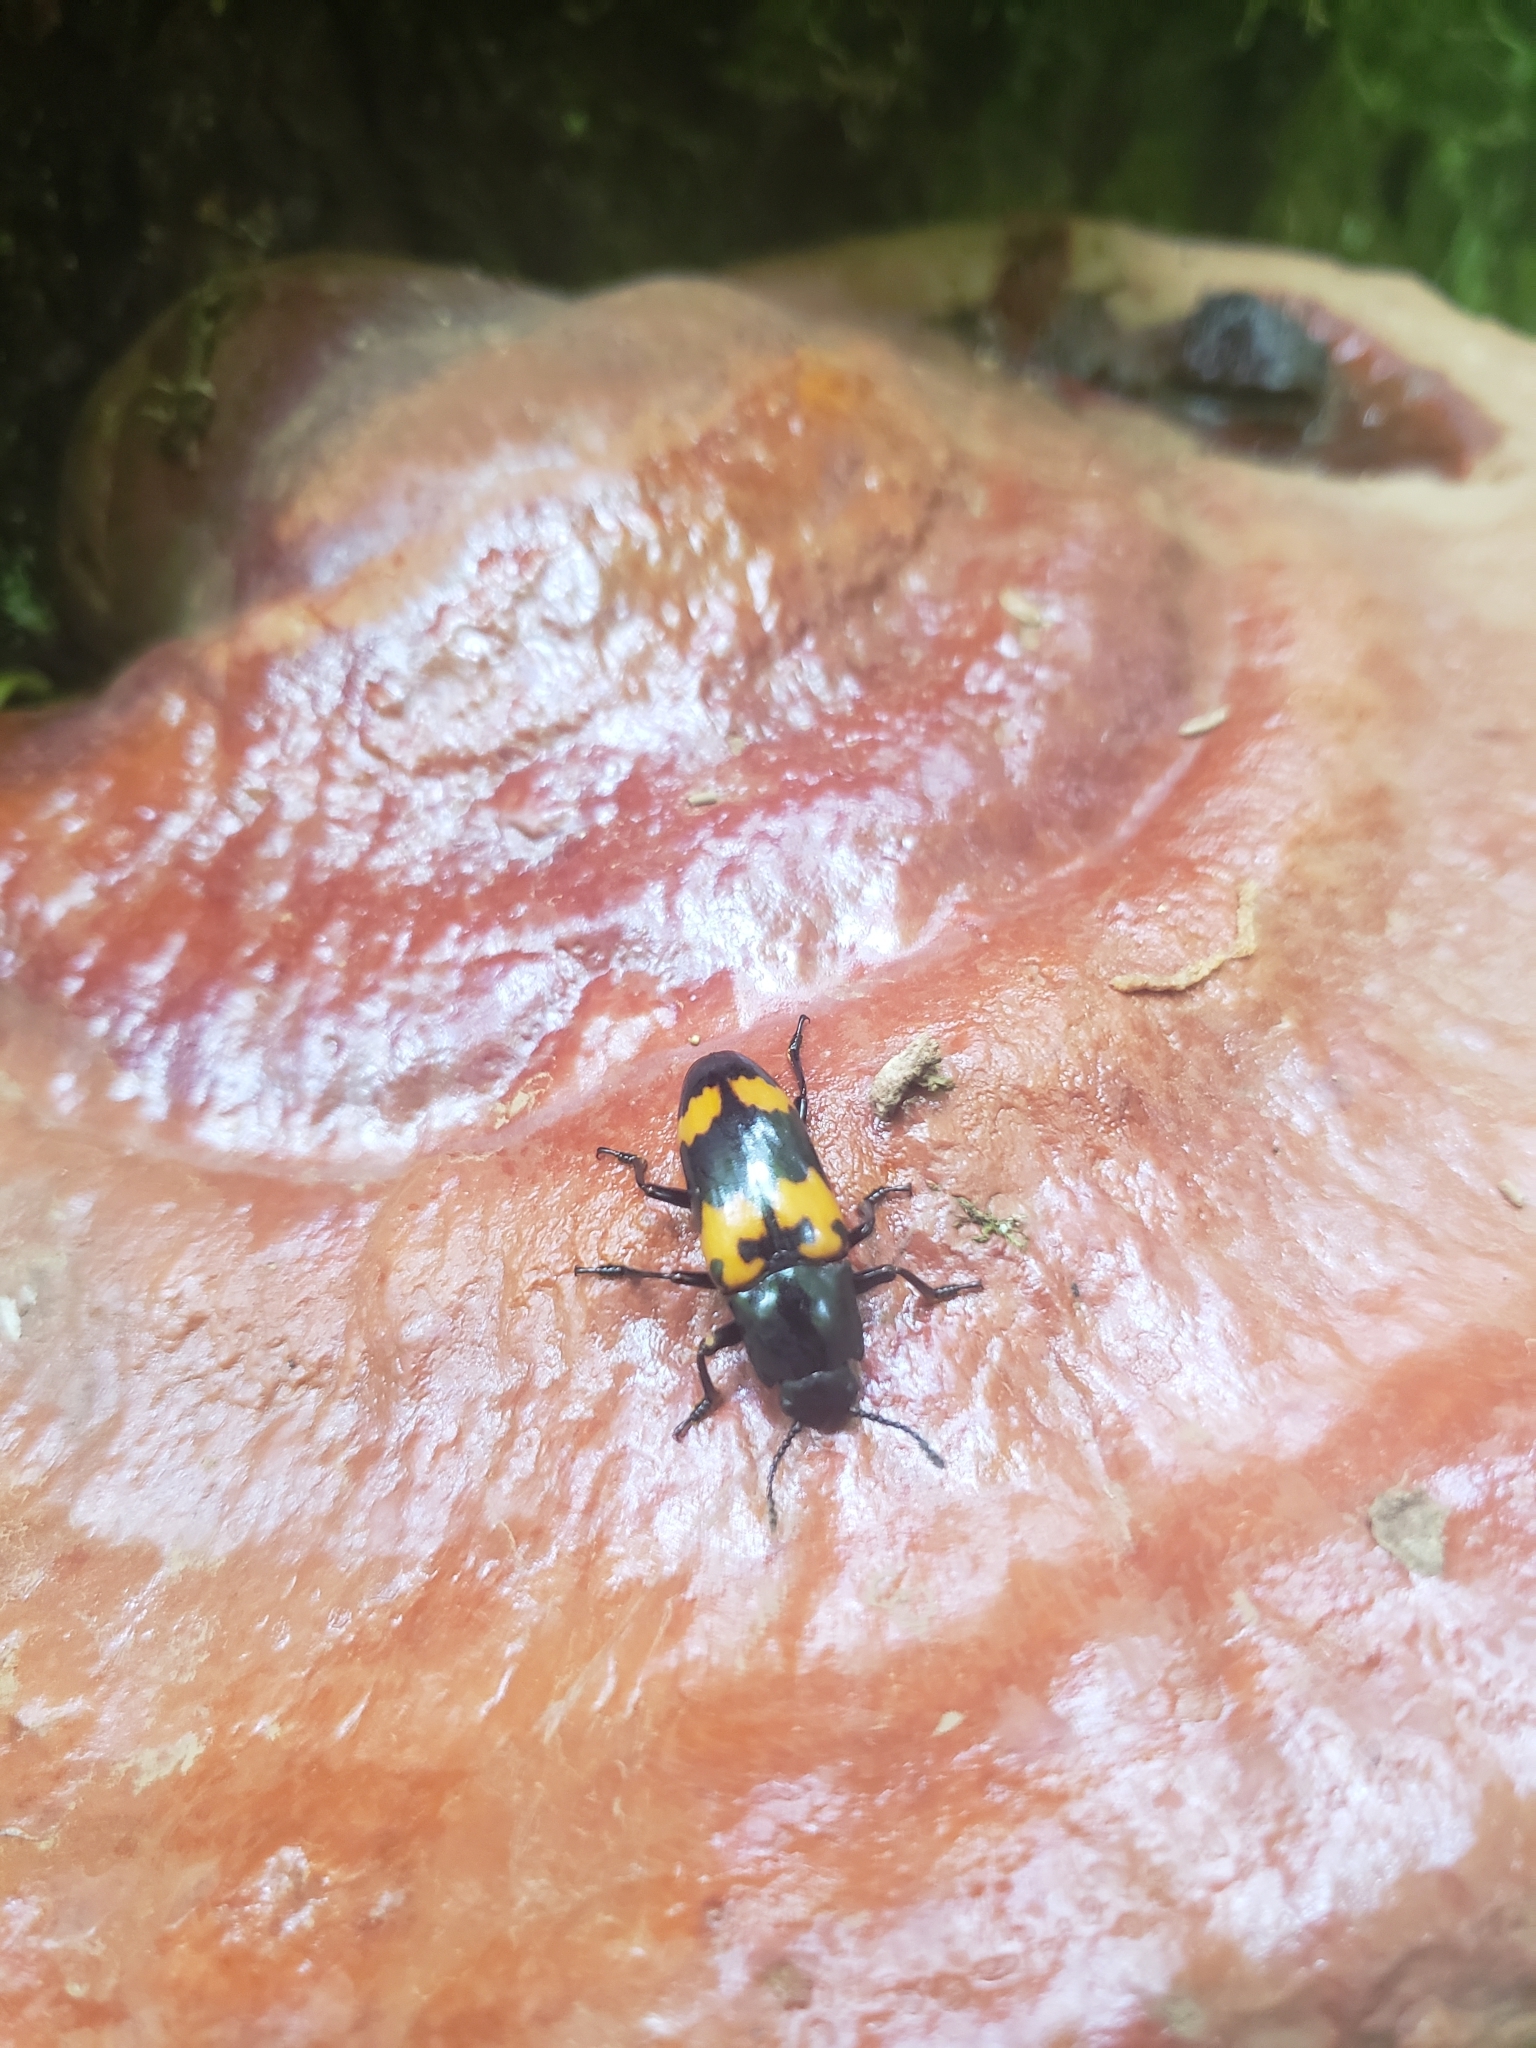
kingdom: Animalia
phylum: Arthropoda
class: Insecta
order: Coleoptera
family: Erotylidae
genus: Megalodacne
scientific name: Megalodacne heros
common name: Pleasing fungus beetle
